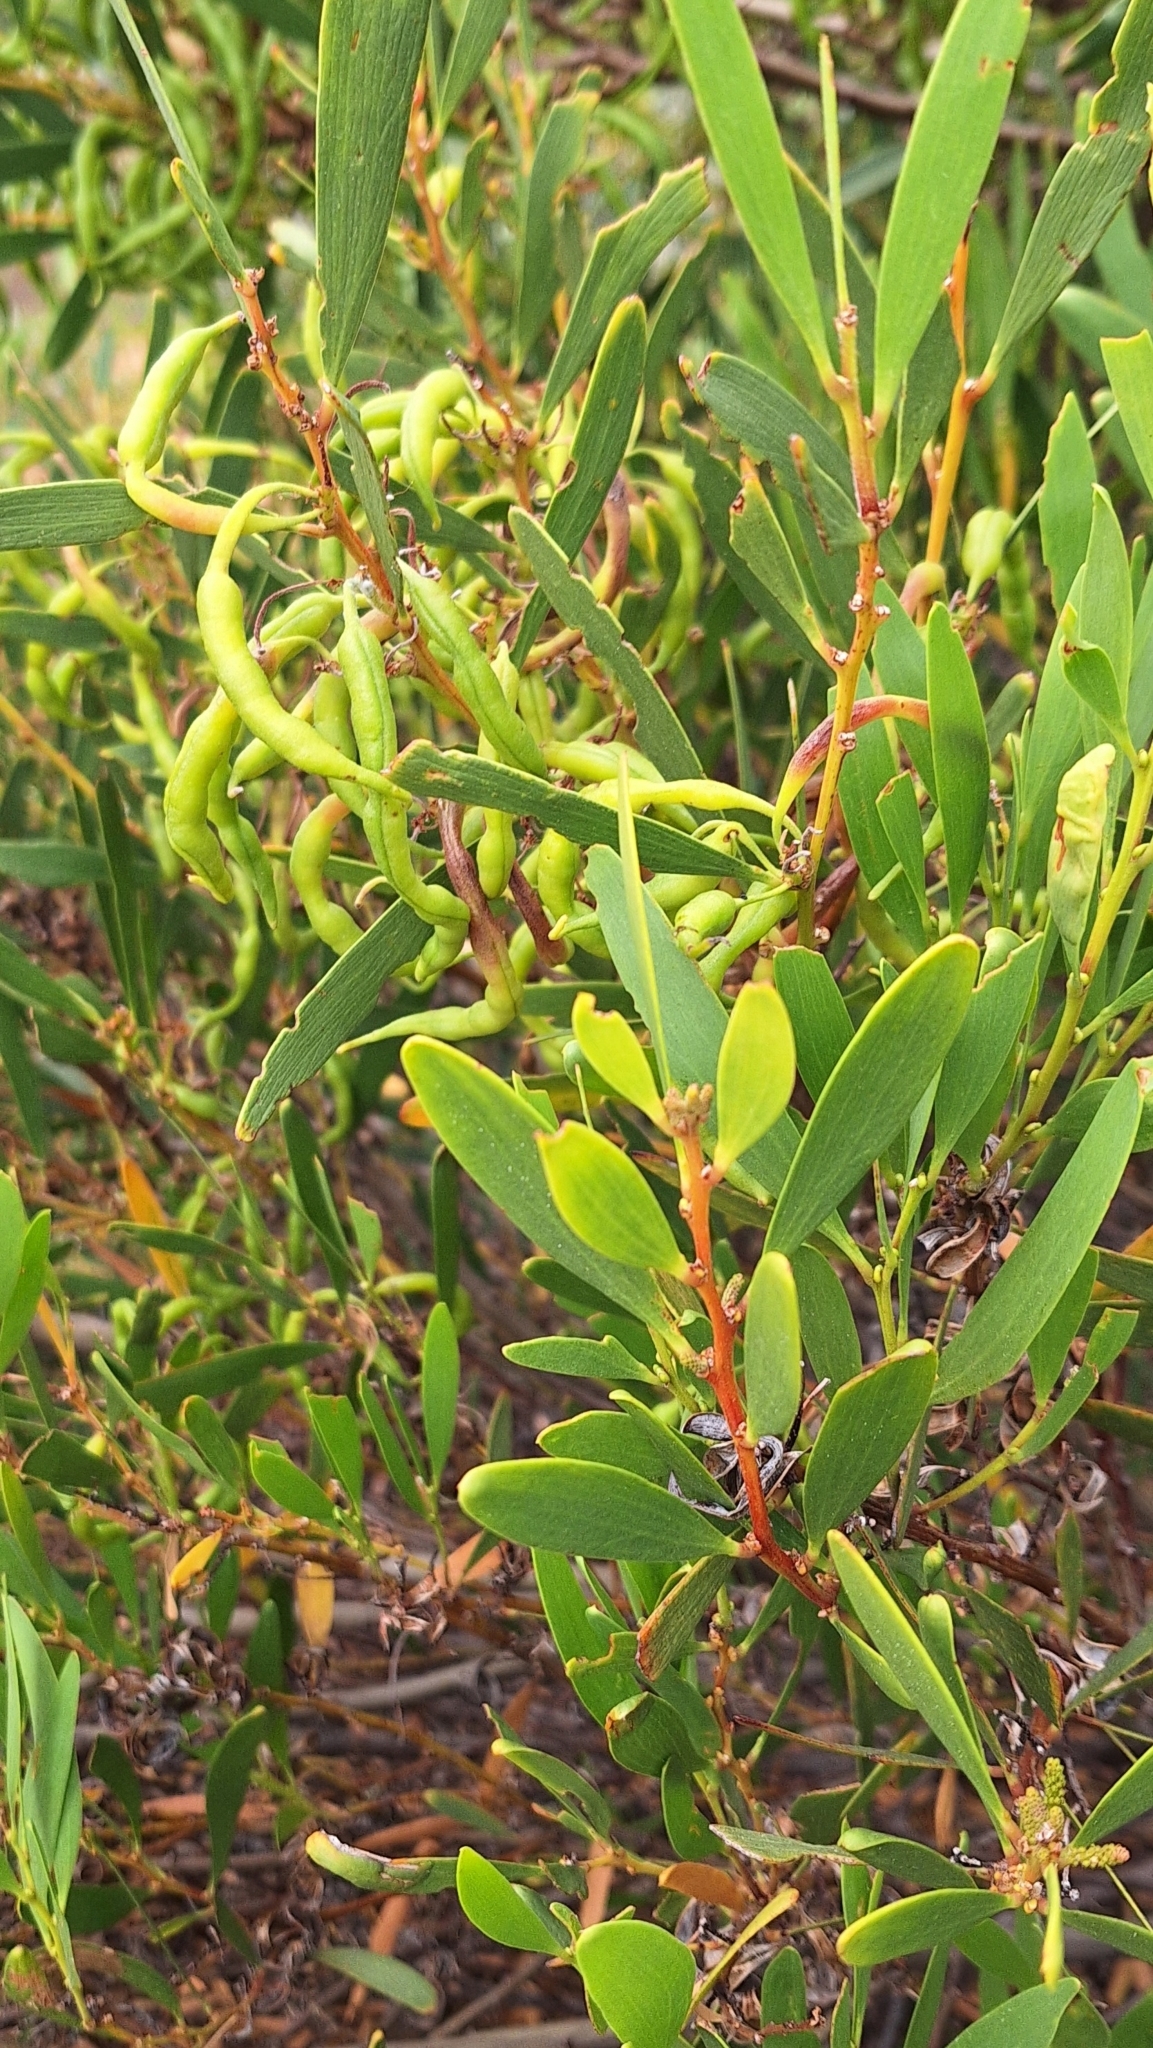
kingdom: Plantae
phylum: Tracheophyta
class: Magnoliopsida
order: Fabales
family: Fabaceae
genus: Acacia
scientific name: Acacia longifolia
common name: Sydney golden wattle
